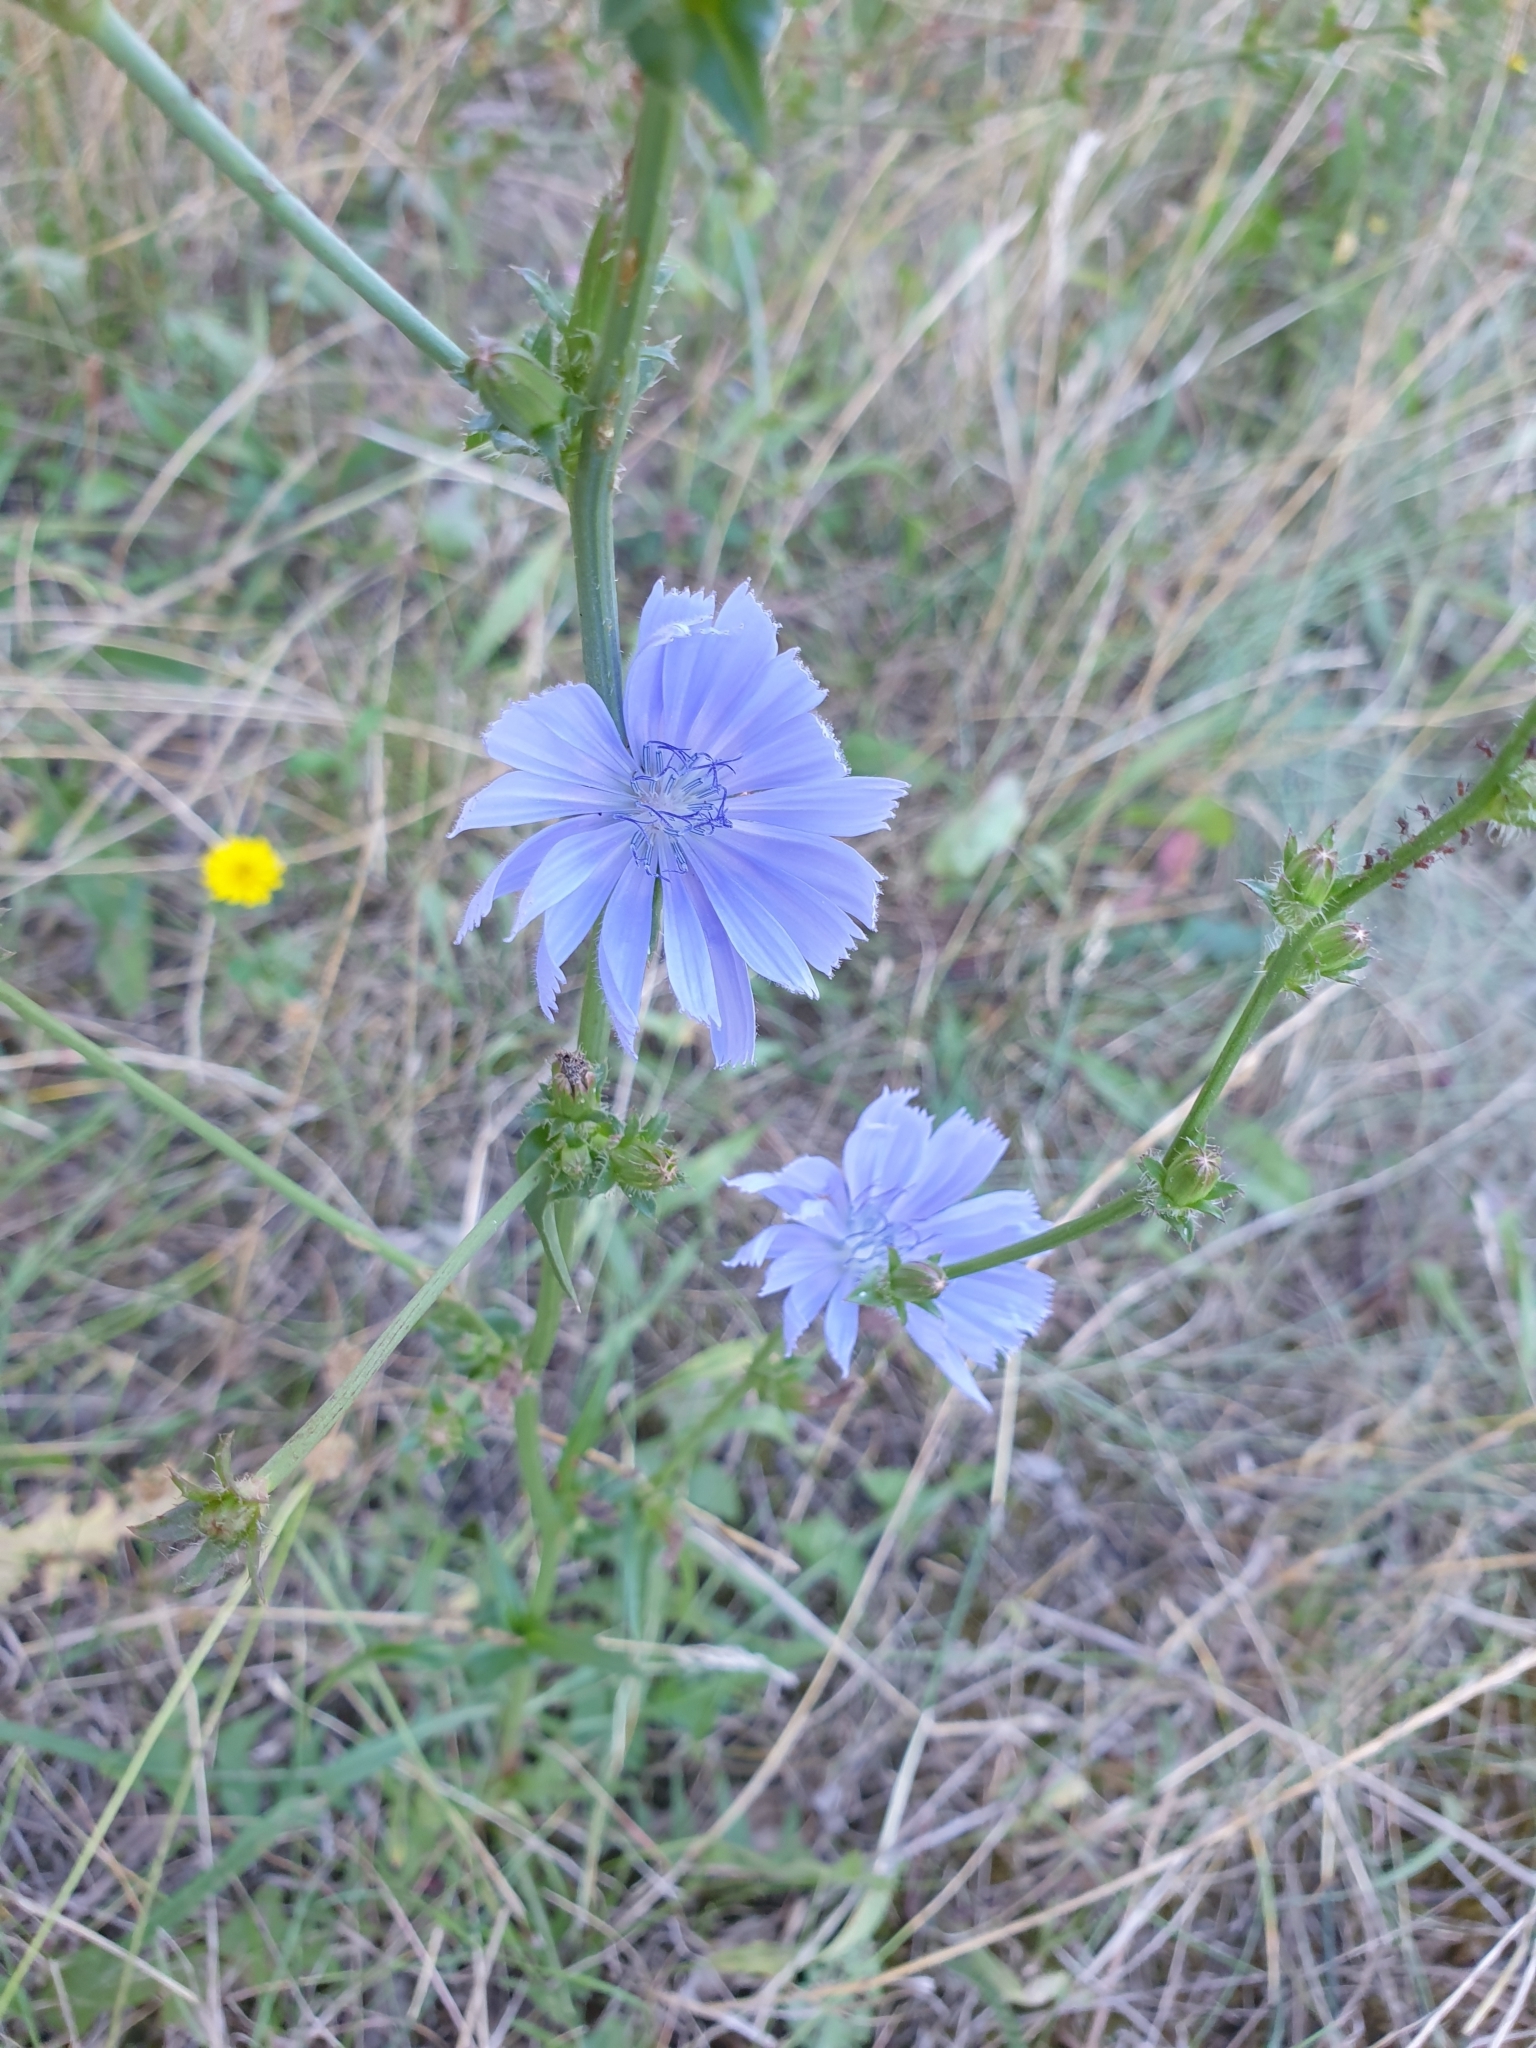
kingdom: Plantae
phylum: Tracheophyta
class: Magnoliopsida
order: Asterales
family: Asteraceae
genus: Cichorium
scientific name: Cichorium intybus
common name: Chicory
